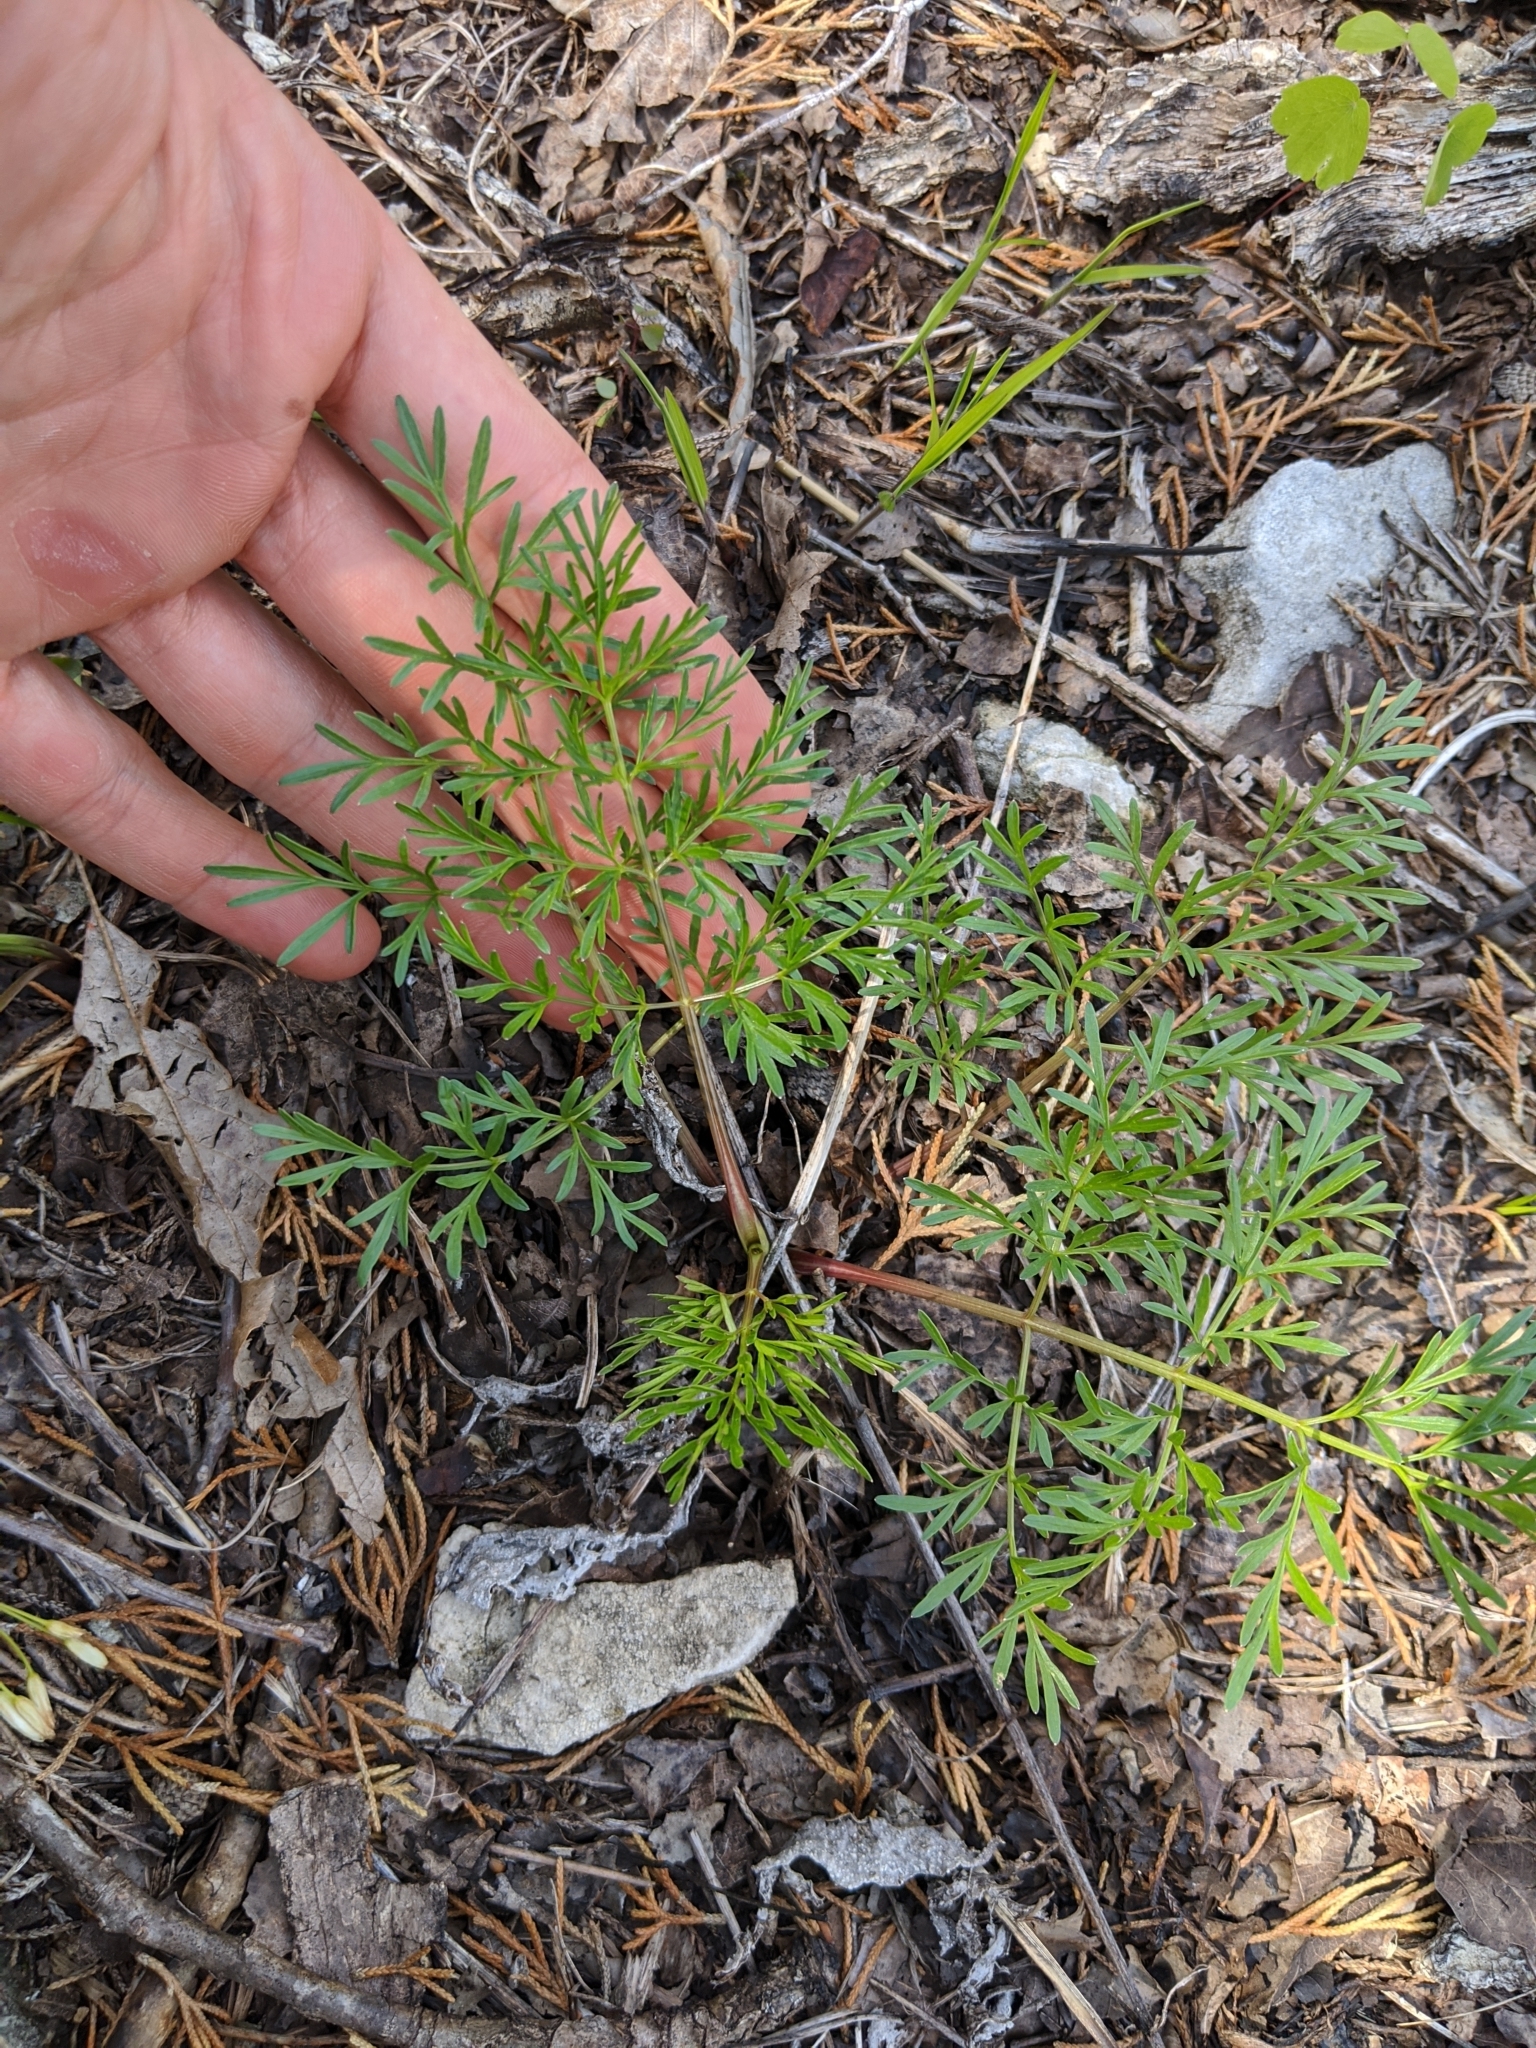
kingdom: Plantae
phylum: Tracheophyta
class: Magnoliopsida
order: Apiales
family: Apiaceae
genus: Perideridia
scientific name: Perideridia americana
